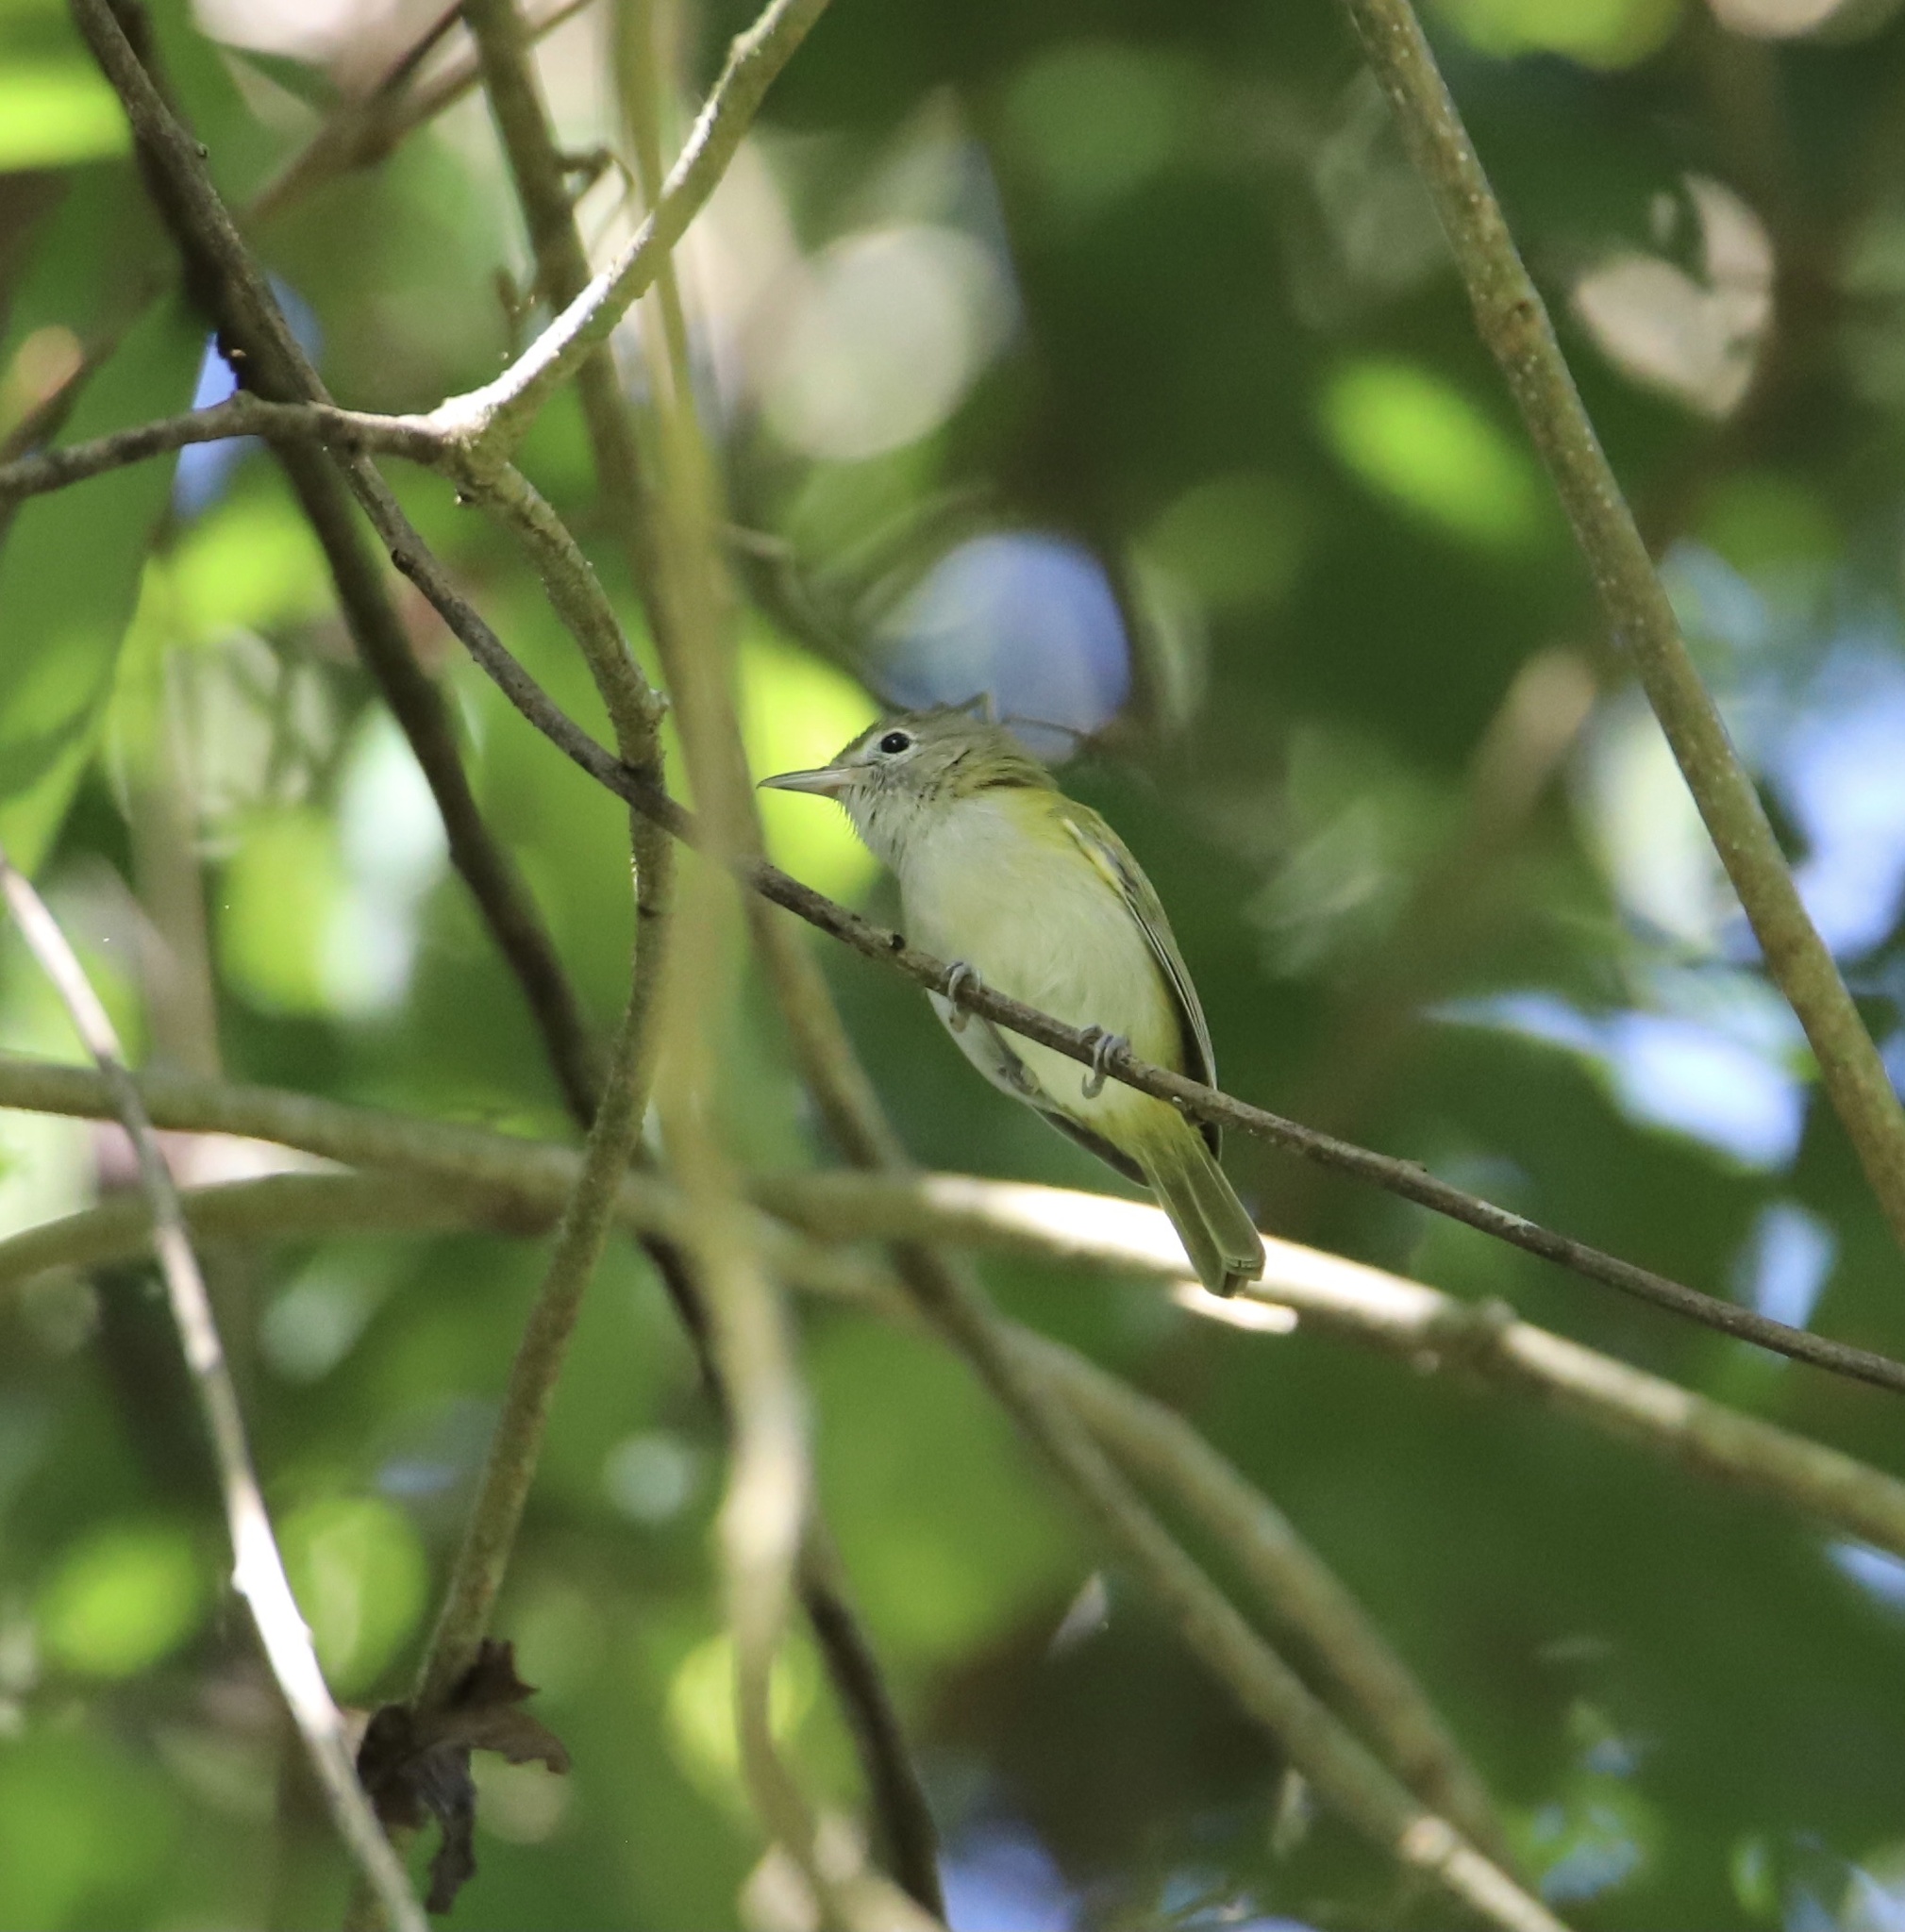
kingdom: Animalia
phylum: Chordata
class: Aves
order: Passeriformes
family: Vireonidae
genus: Hylophilus
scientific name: Hylophilus decurtatus
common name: Lesser greenlet
